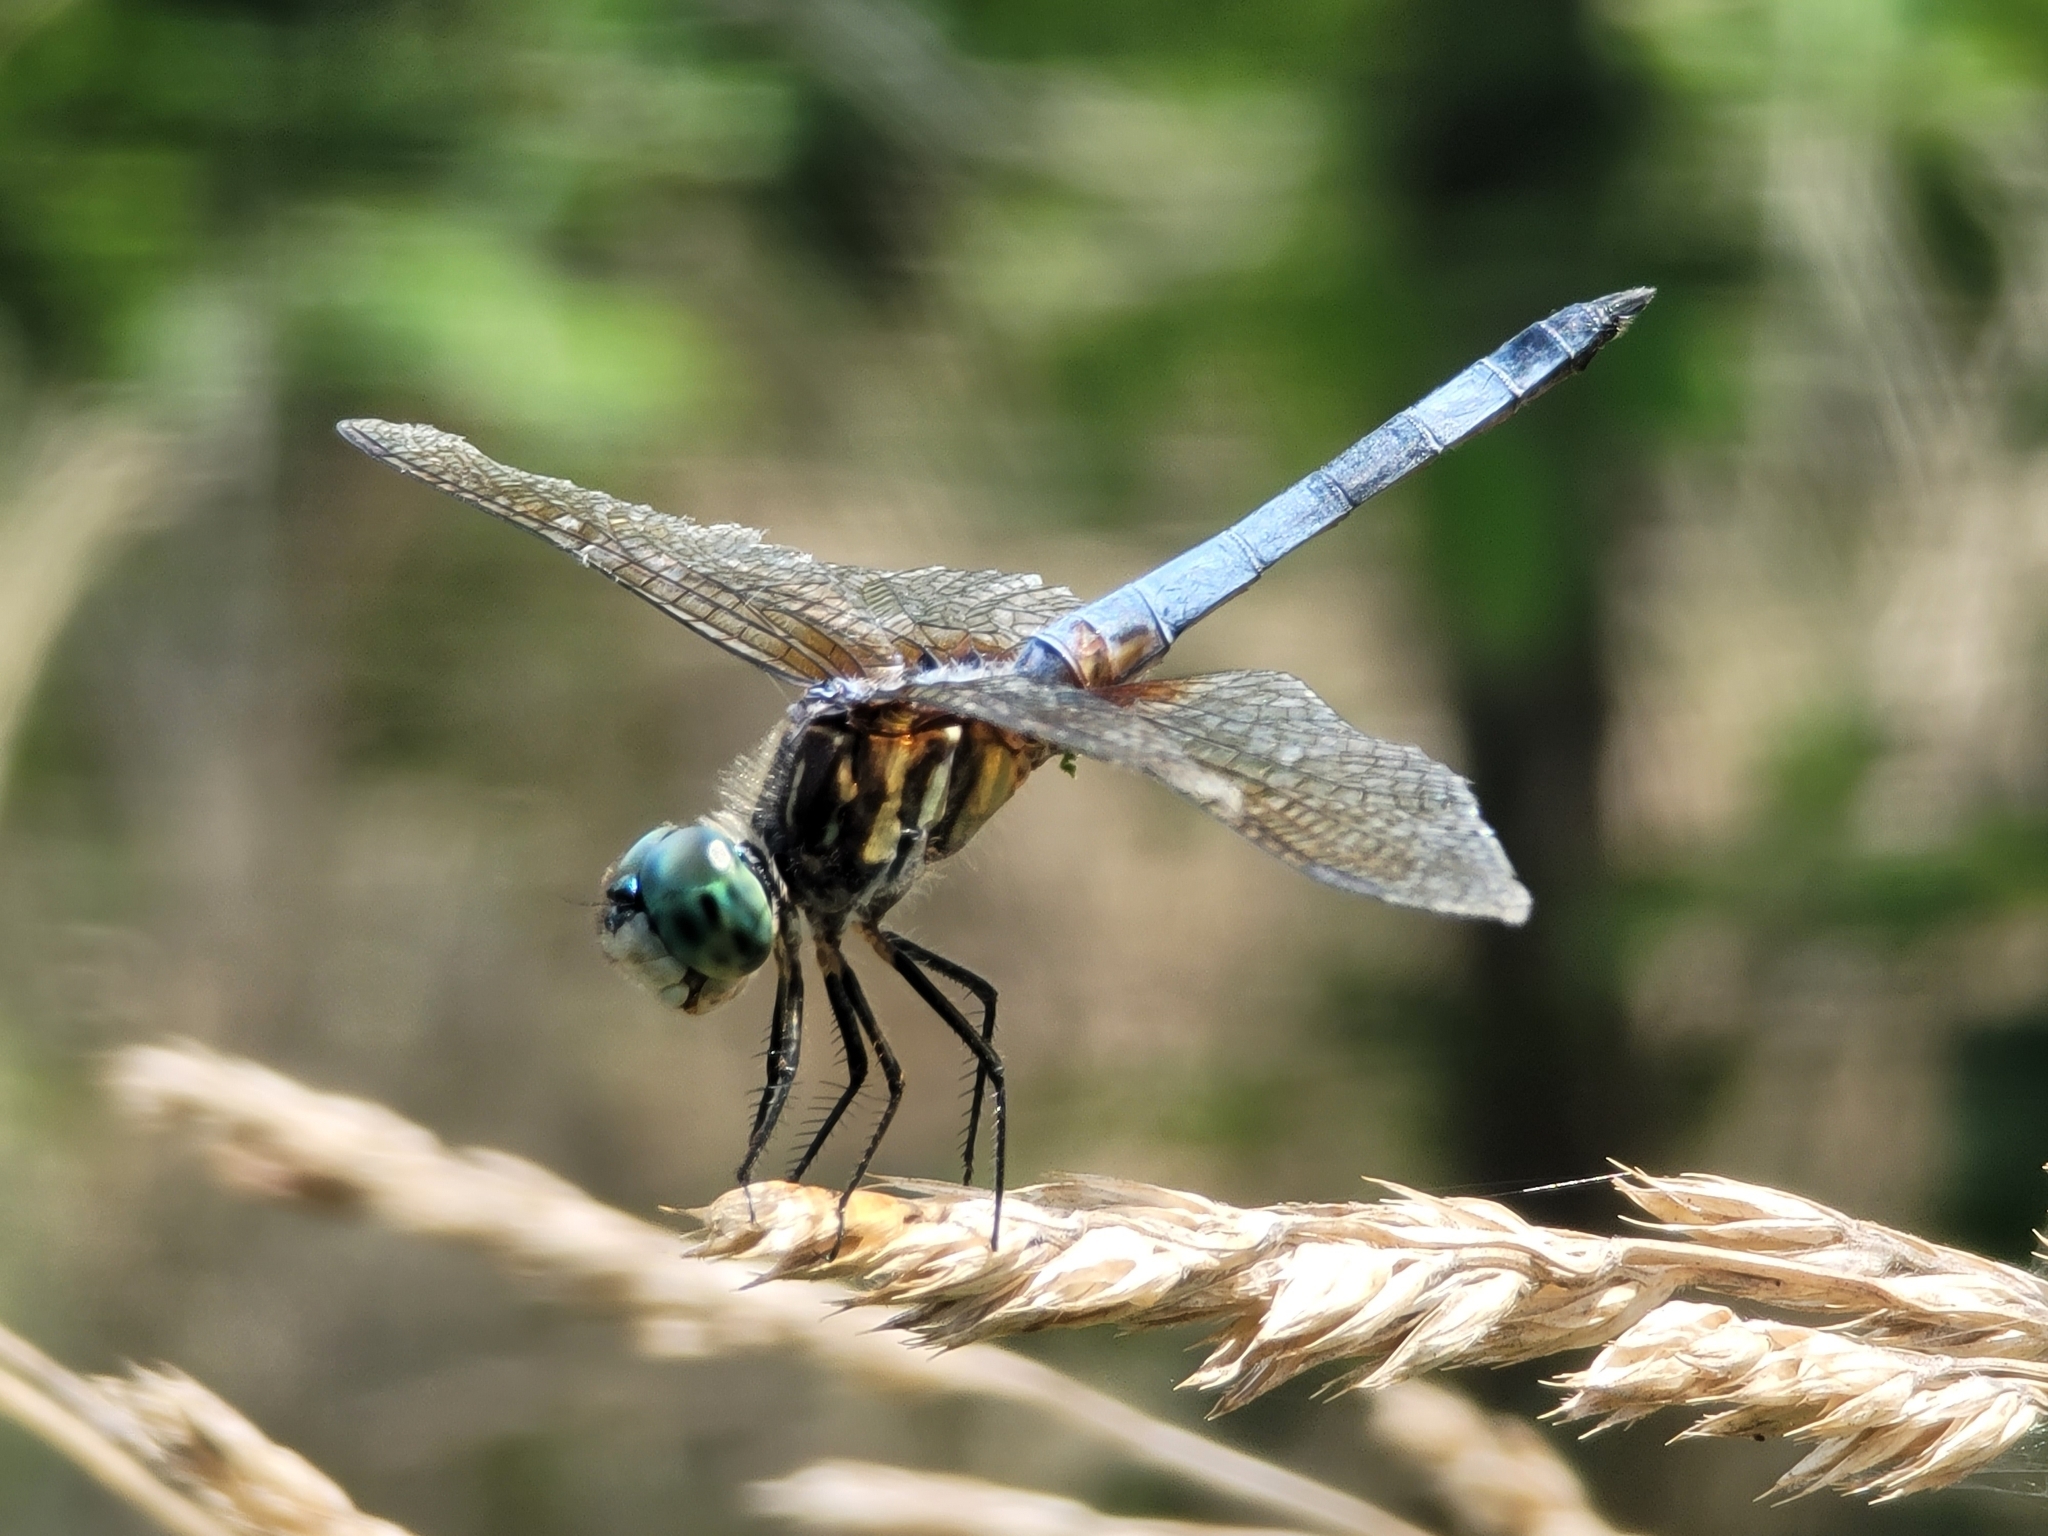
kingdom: Animalia
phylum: Arthropoda
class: Insecta
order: Odonata
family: Libellulidae
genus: Pachydiplax
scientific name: Pachydiplax longipennis
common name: Blue dasher
